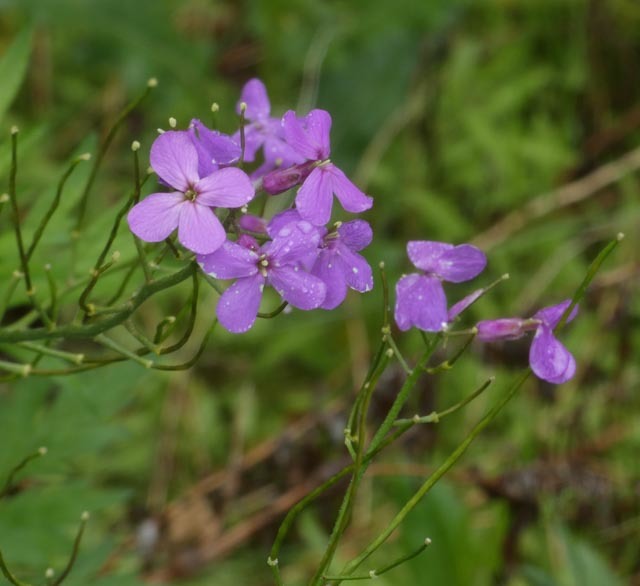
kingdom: Plantae
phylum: Tracheophyta
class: Magnoliopsida
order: Brassicales
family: Brassicaceae
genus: Hesperis
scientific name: Hesperis matronalis
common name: Dame's-violet
